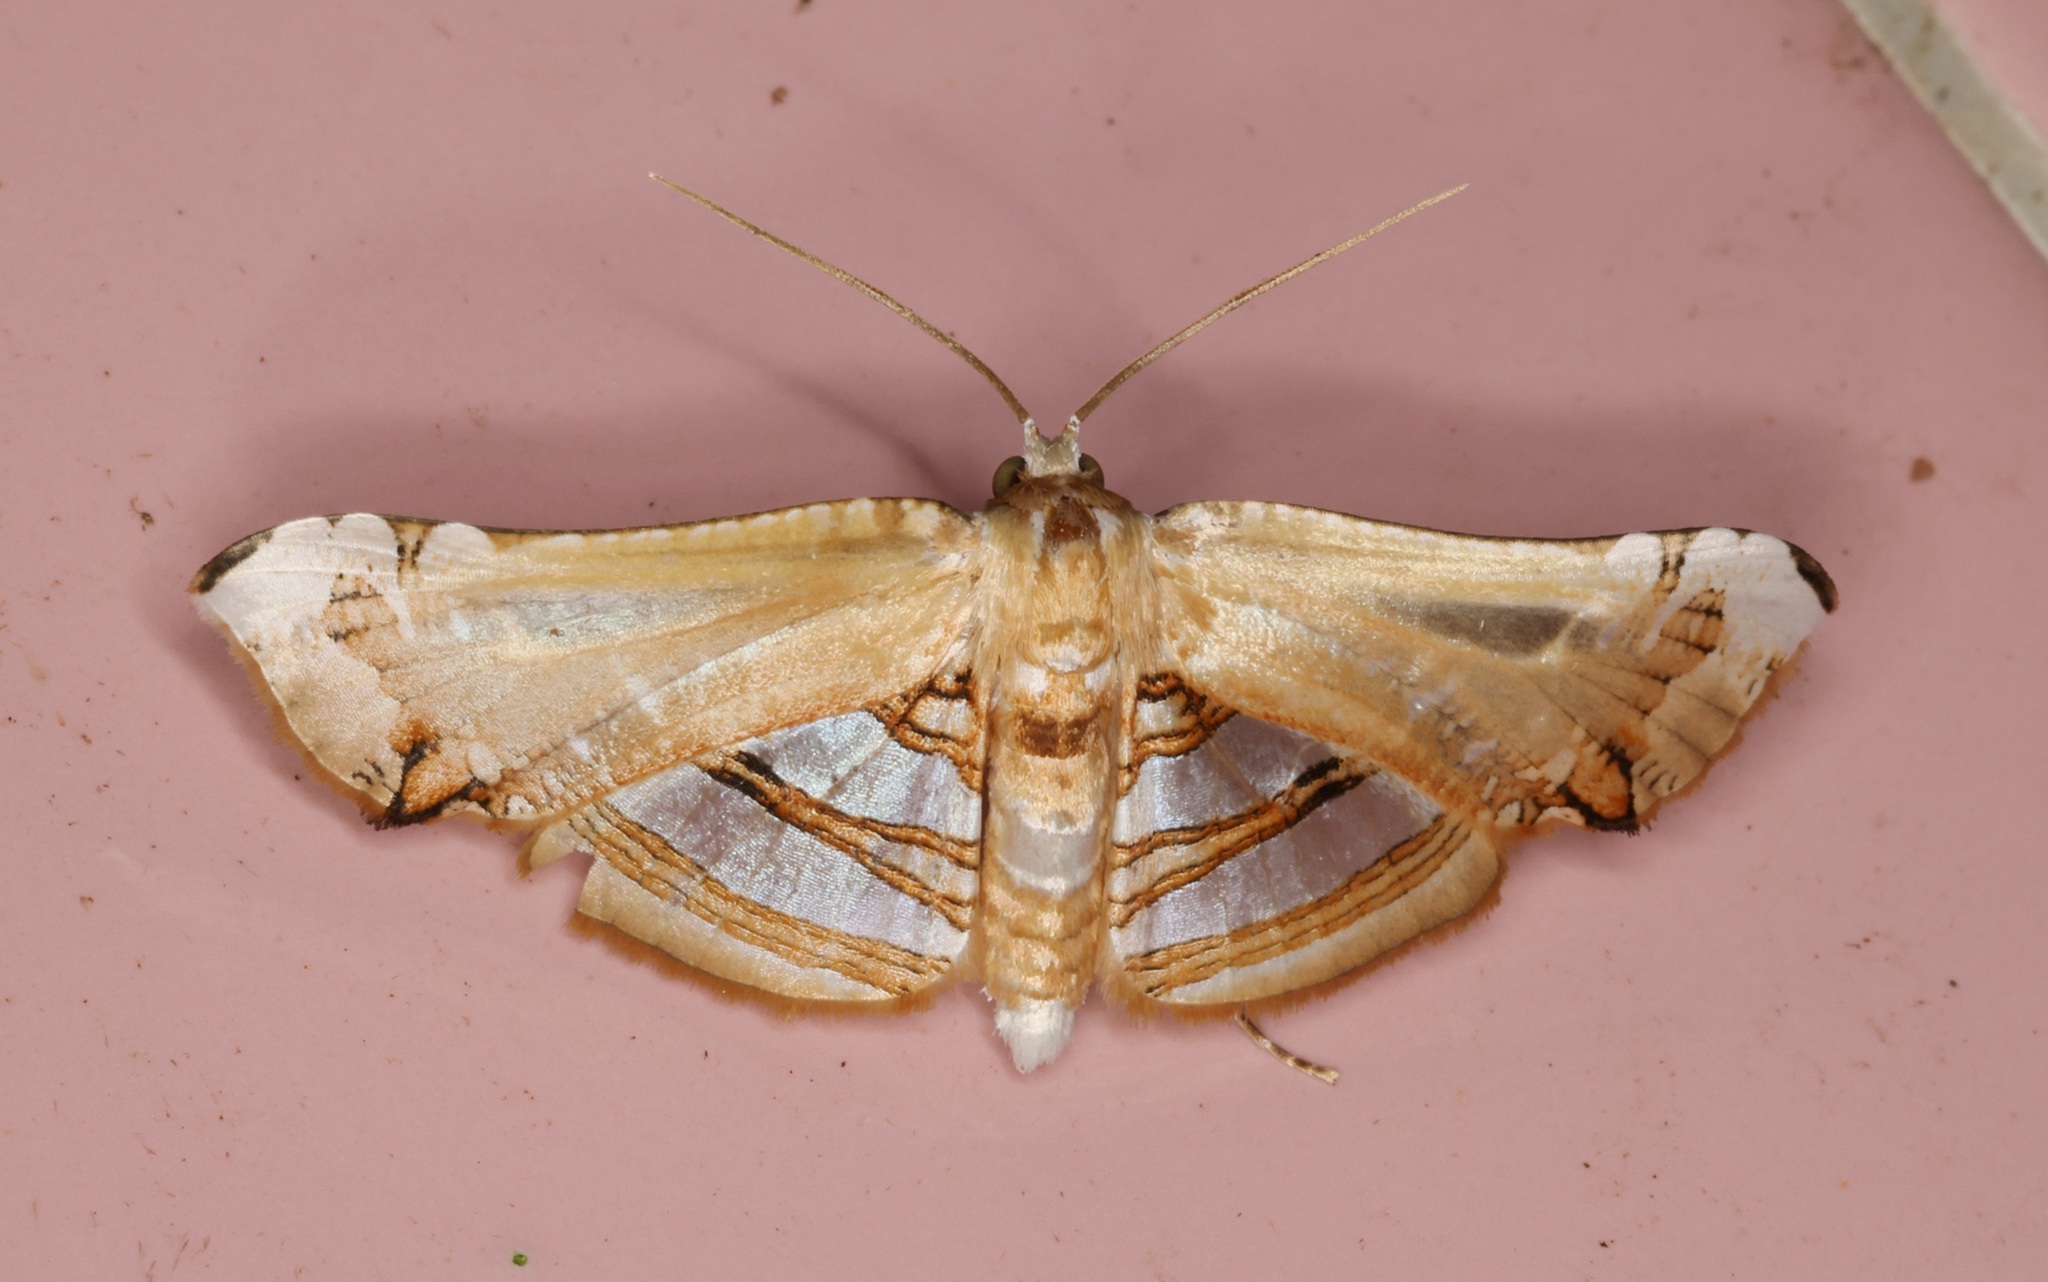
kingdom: Animalia
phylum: Arthropoda
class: Insecta
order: Lepidoptera
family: Thyrididae
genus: Herdonia
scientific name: Herdonia hainanensis
